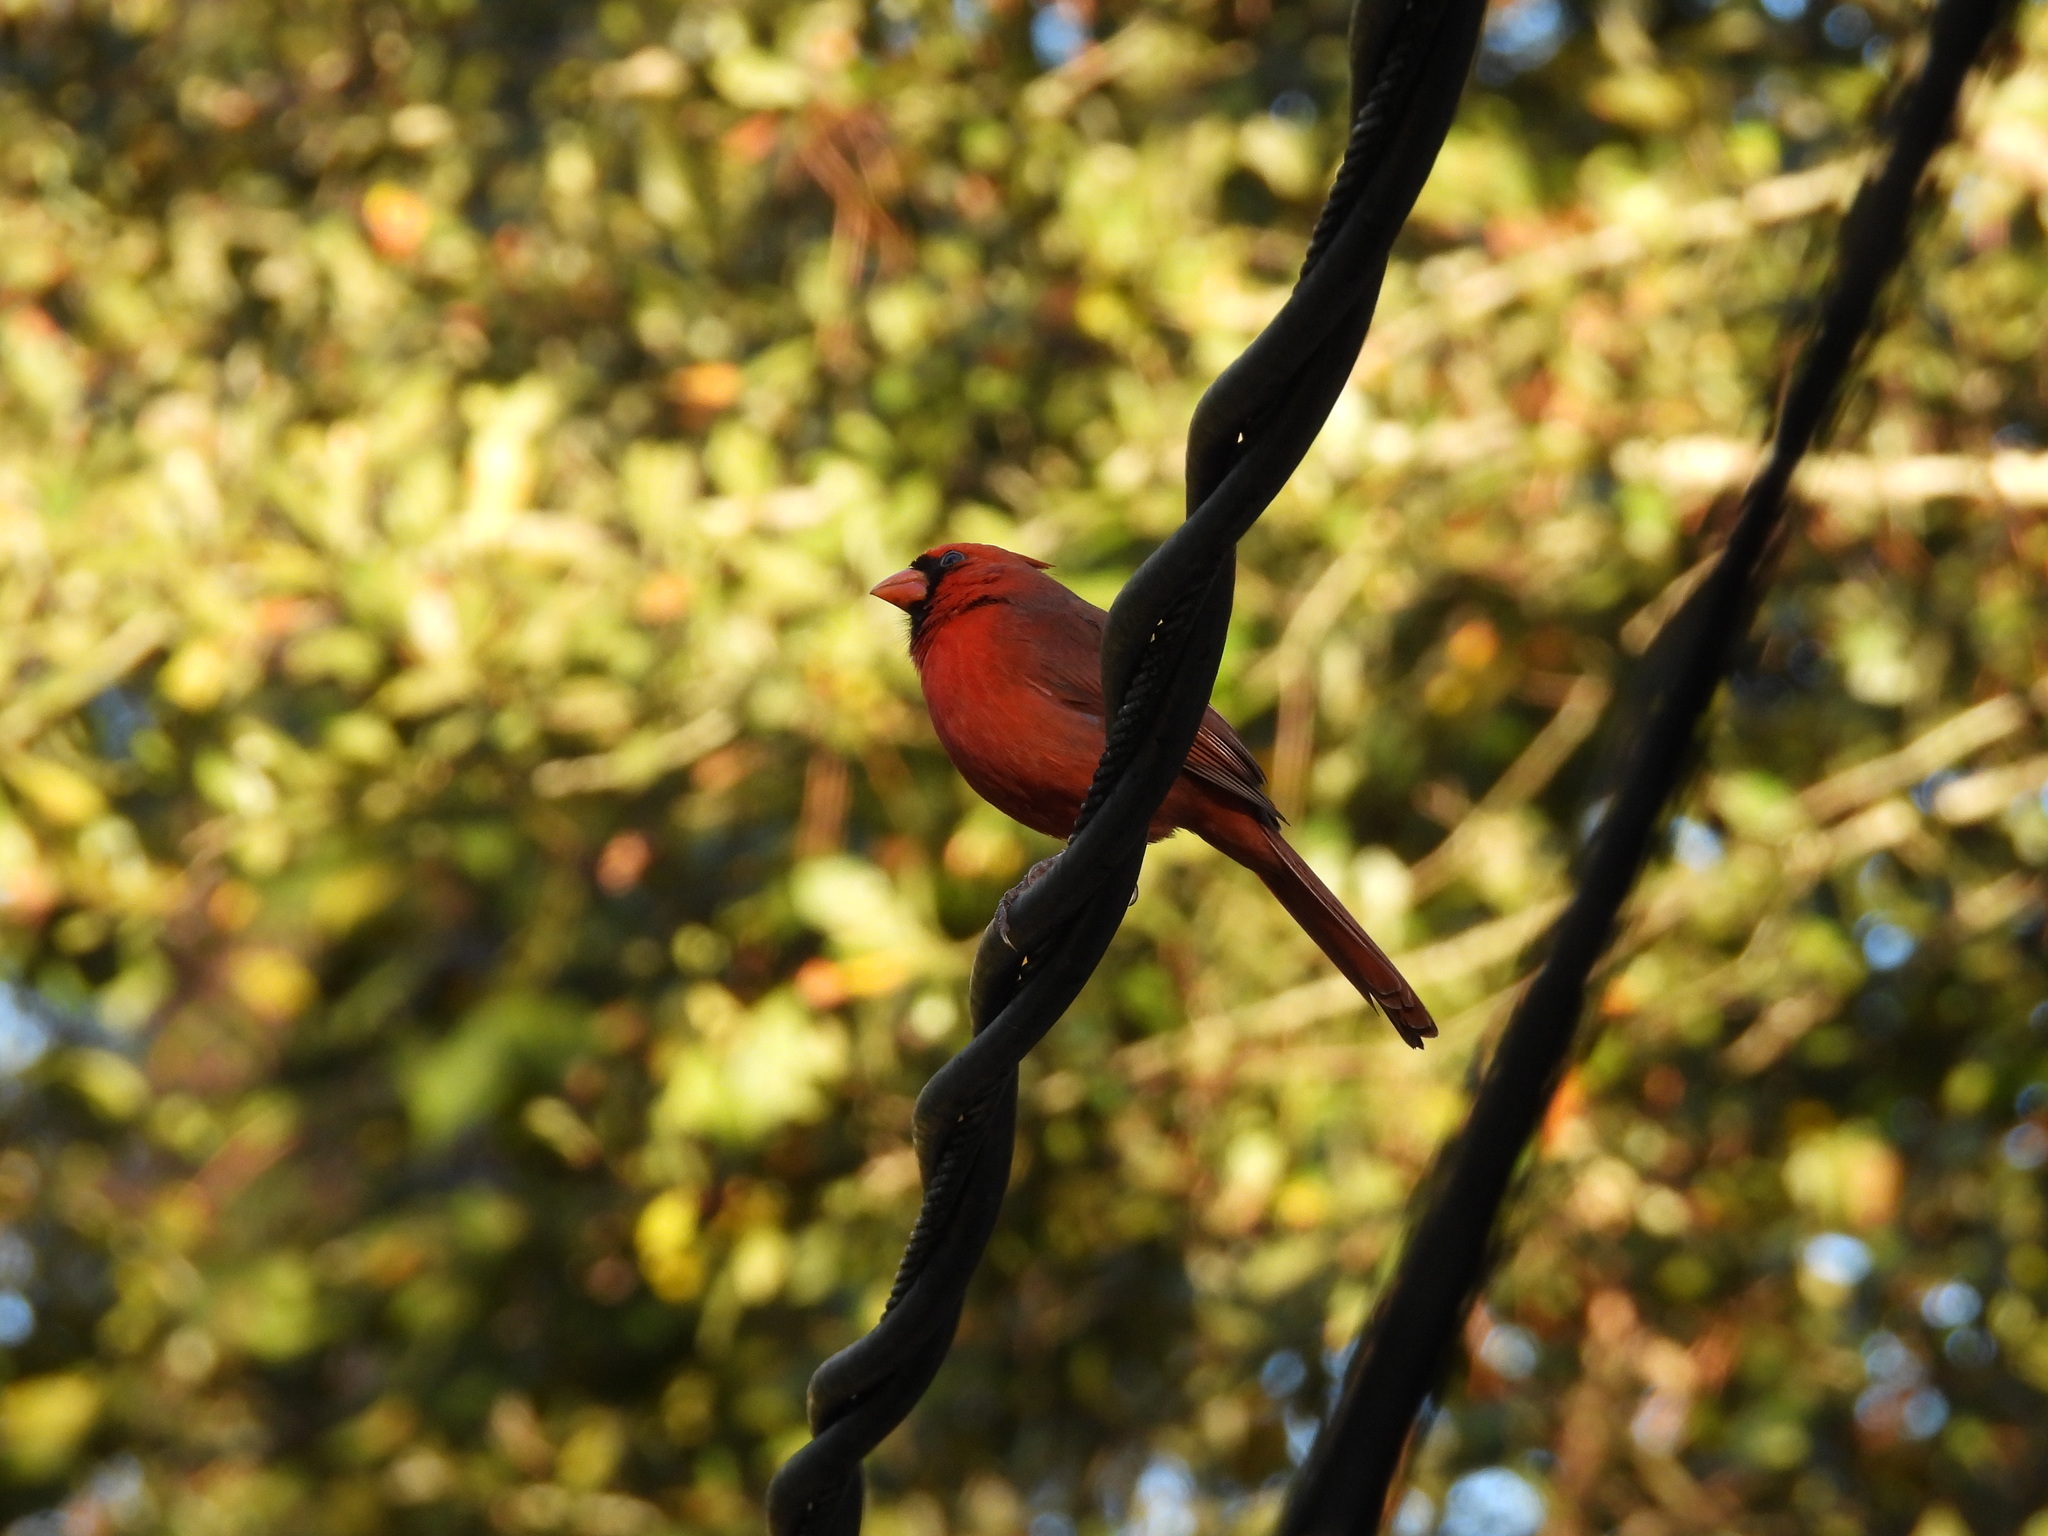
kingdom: Animalia
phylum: Chordata
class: Aves
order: Passeriformes
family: Cardinalidae
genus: Cardinalis
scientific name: Cardinalis cardinalis
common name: Northern cardinal
